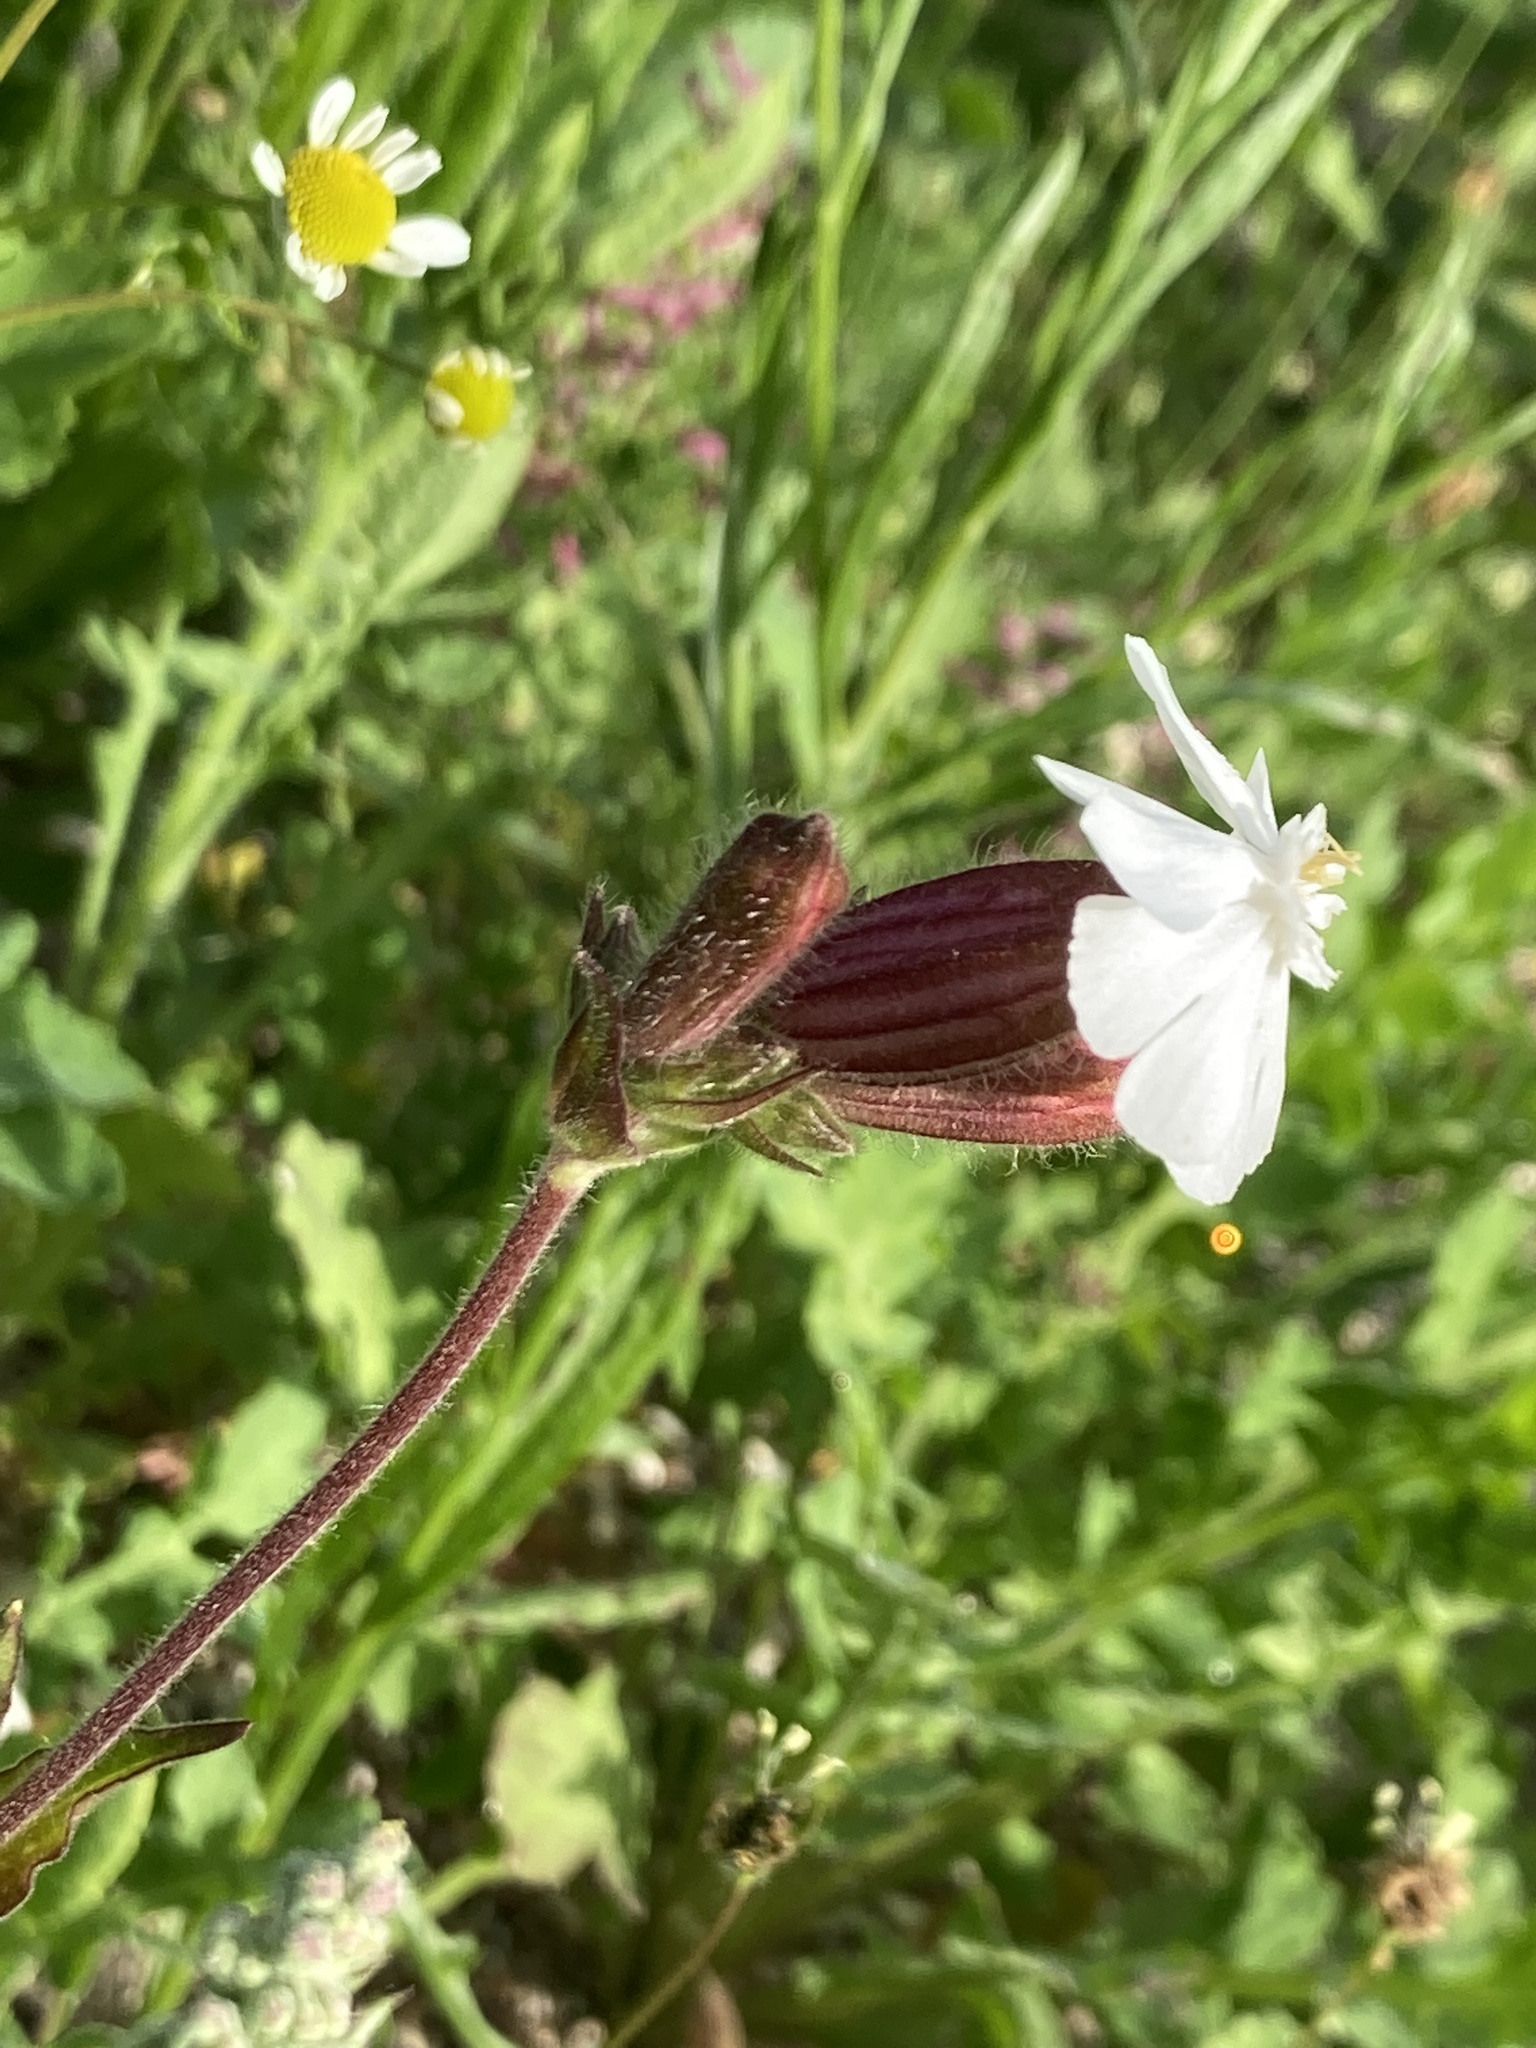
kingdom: Plantae
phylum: Tracheophyta
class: Magnoliopsida
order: Caryophyllales
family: Caryophyllaceae
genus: Silene
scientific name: Silene latifolia
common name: White campion
